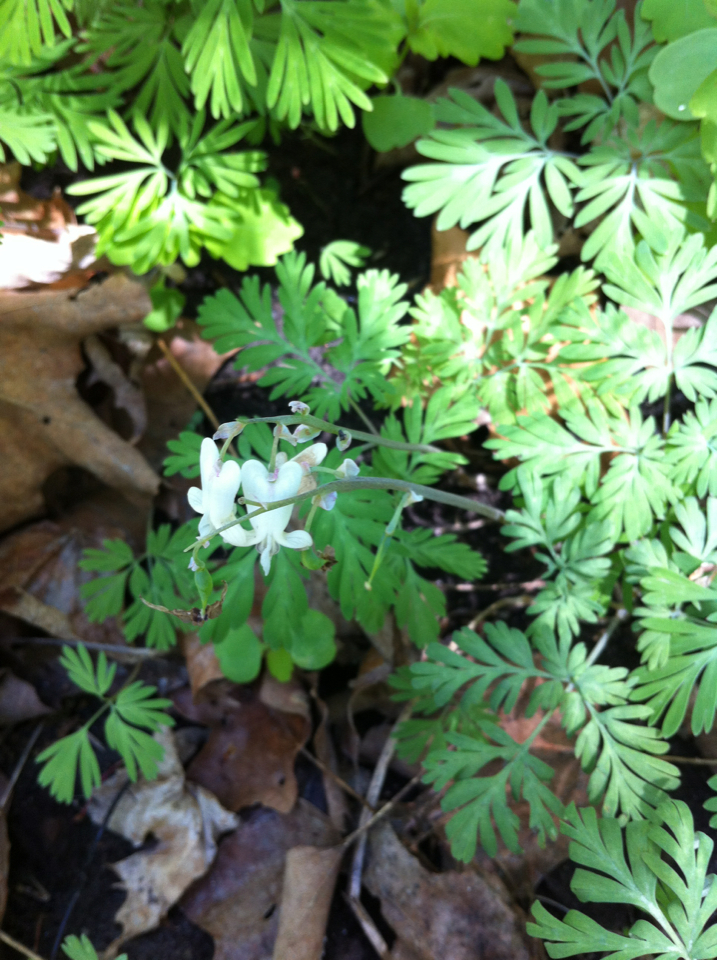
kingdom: Plantae
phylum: Tracheophyta
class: Magnoliopsida
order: Ranunculales
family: Papaveraceae
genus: Dicentra
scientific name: Dicentra canadensis
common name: Squirrel-corn
